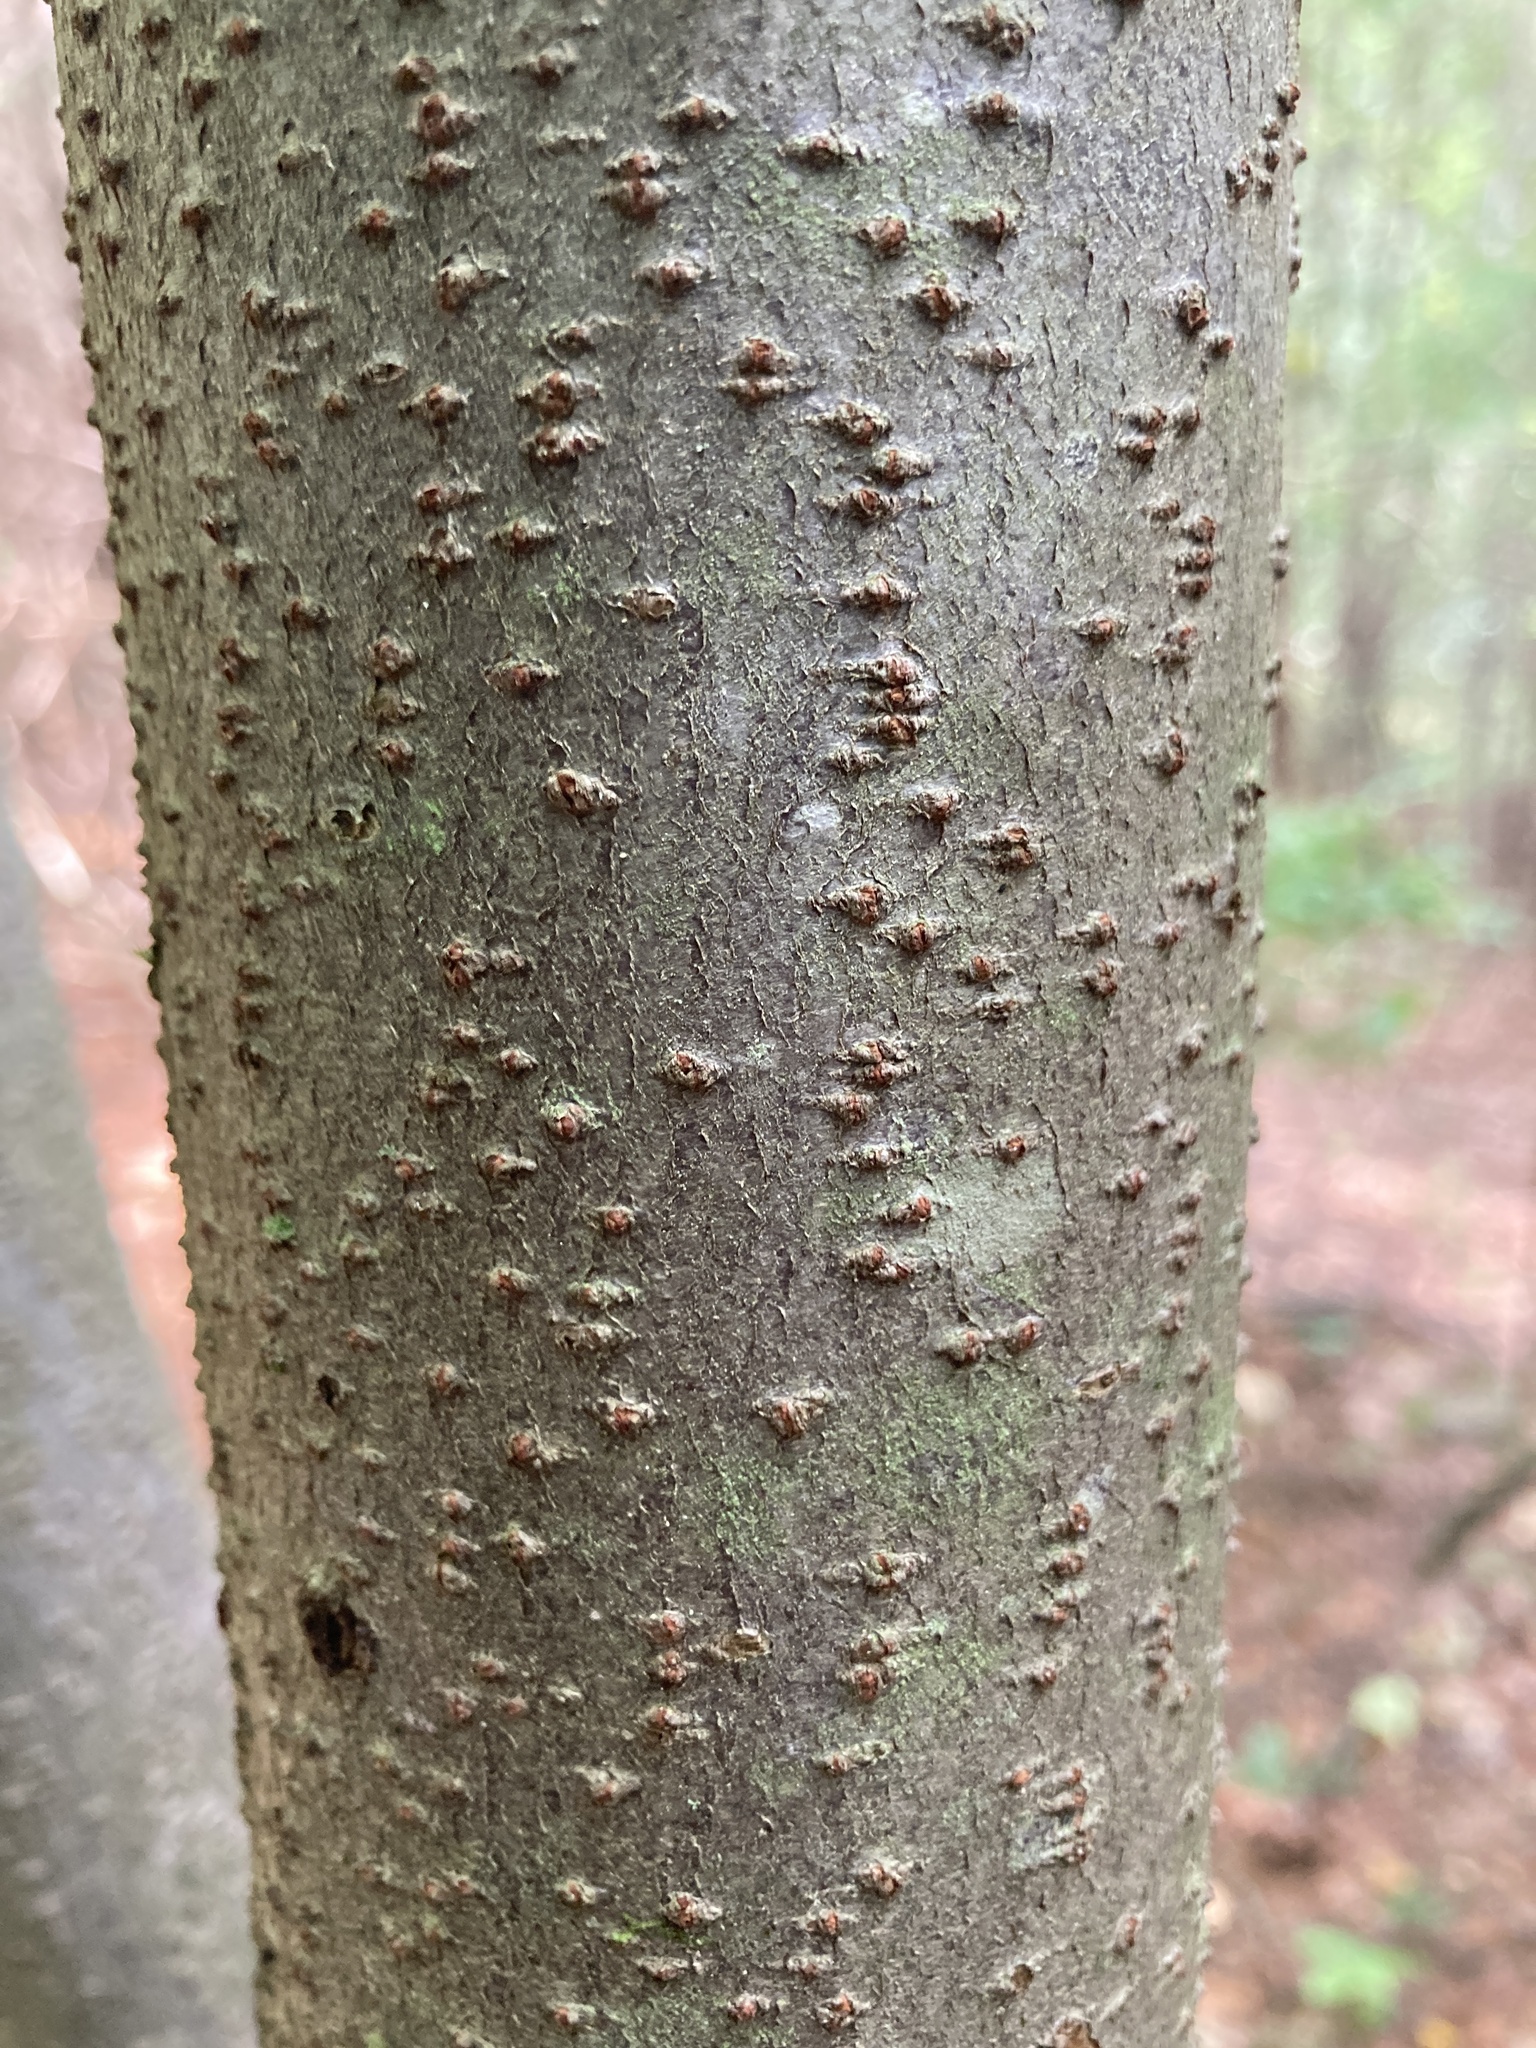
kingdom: Plantae
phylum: Tracheophyta
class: Magnoliopsida
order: Rosales
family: Elaeagnaceae
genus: Elaeagnus
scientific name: Elaeagnus umbellata
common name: Autumn olive
